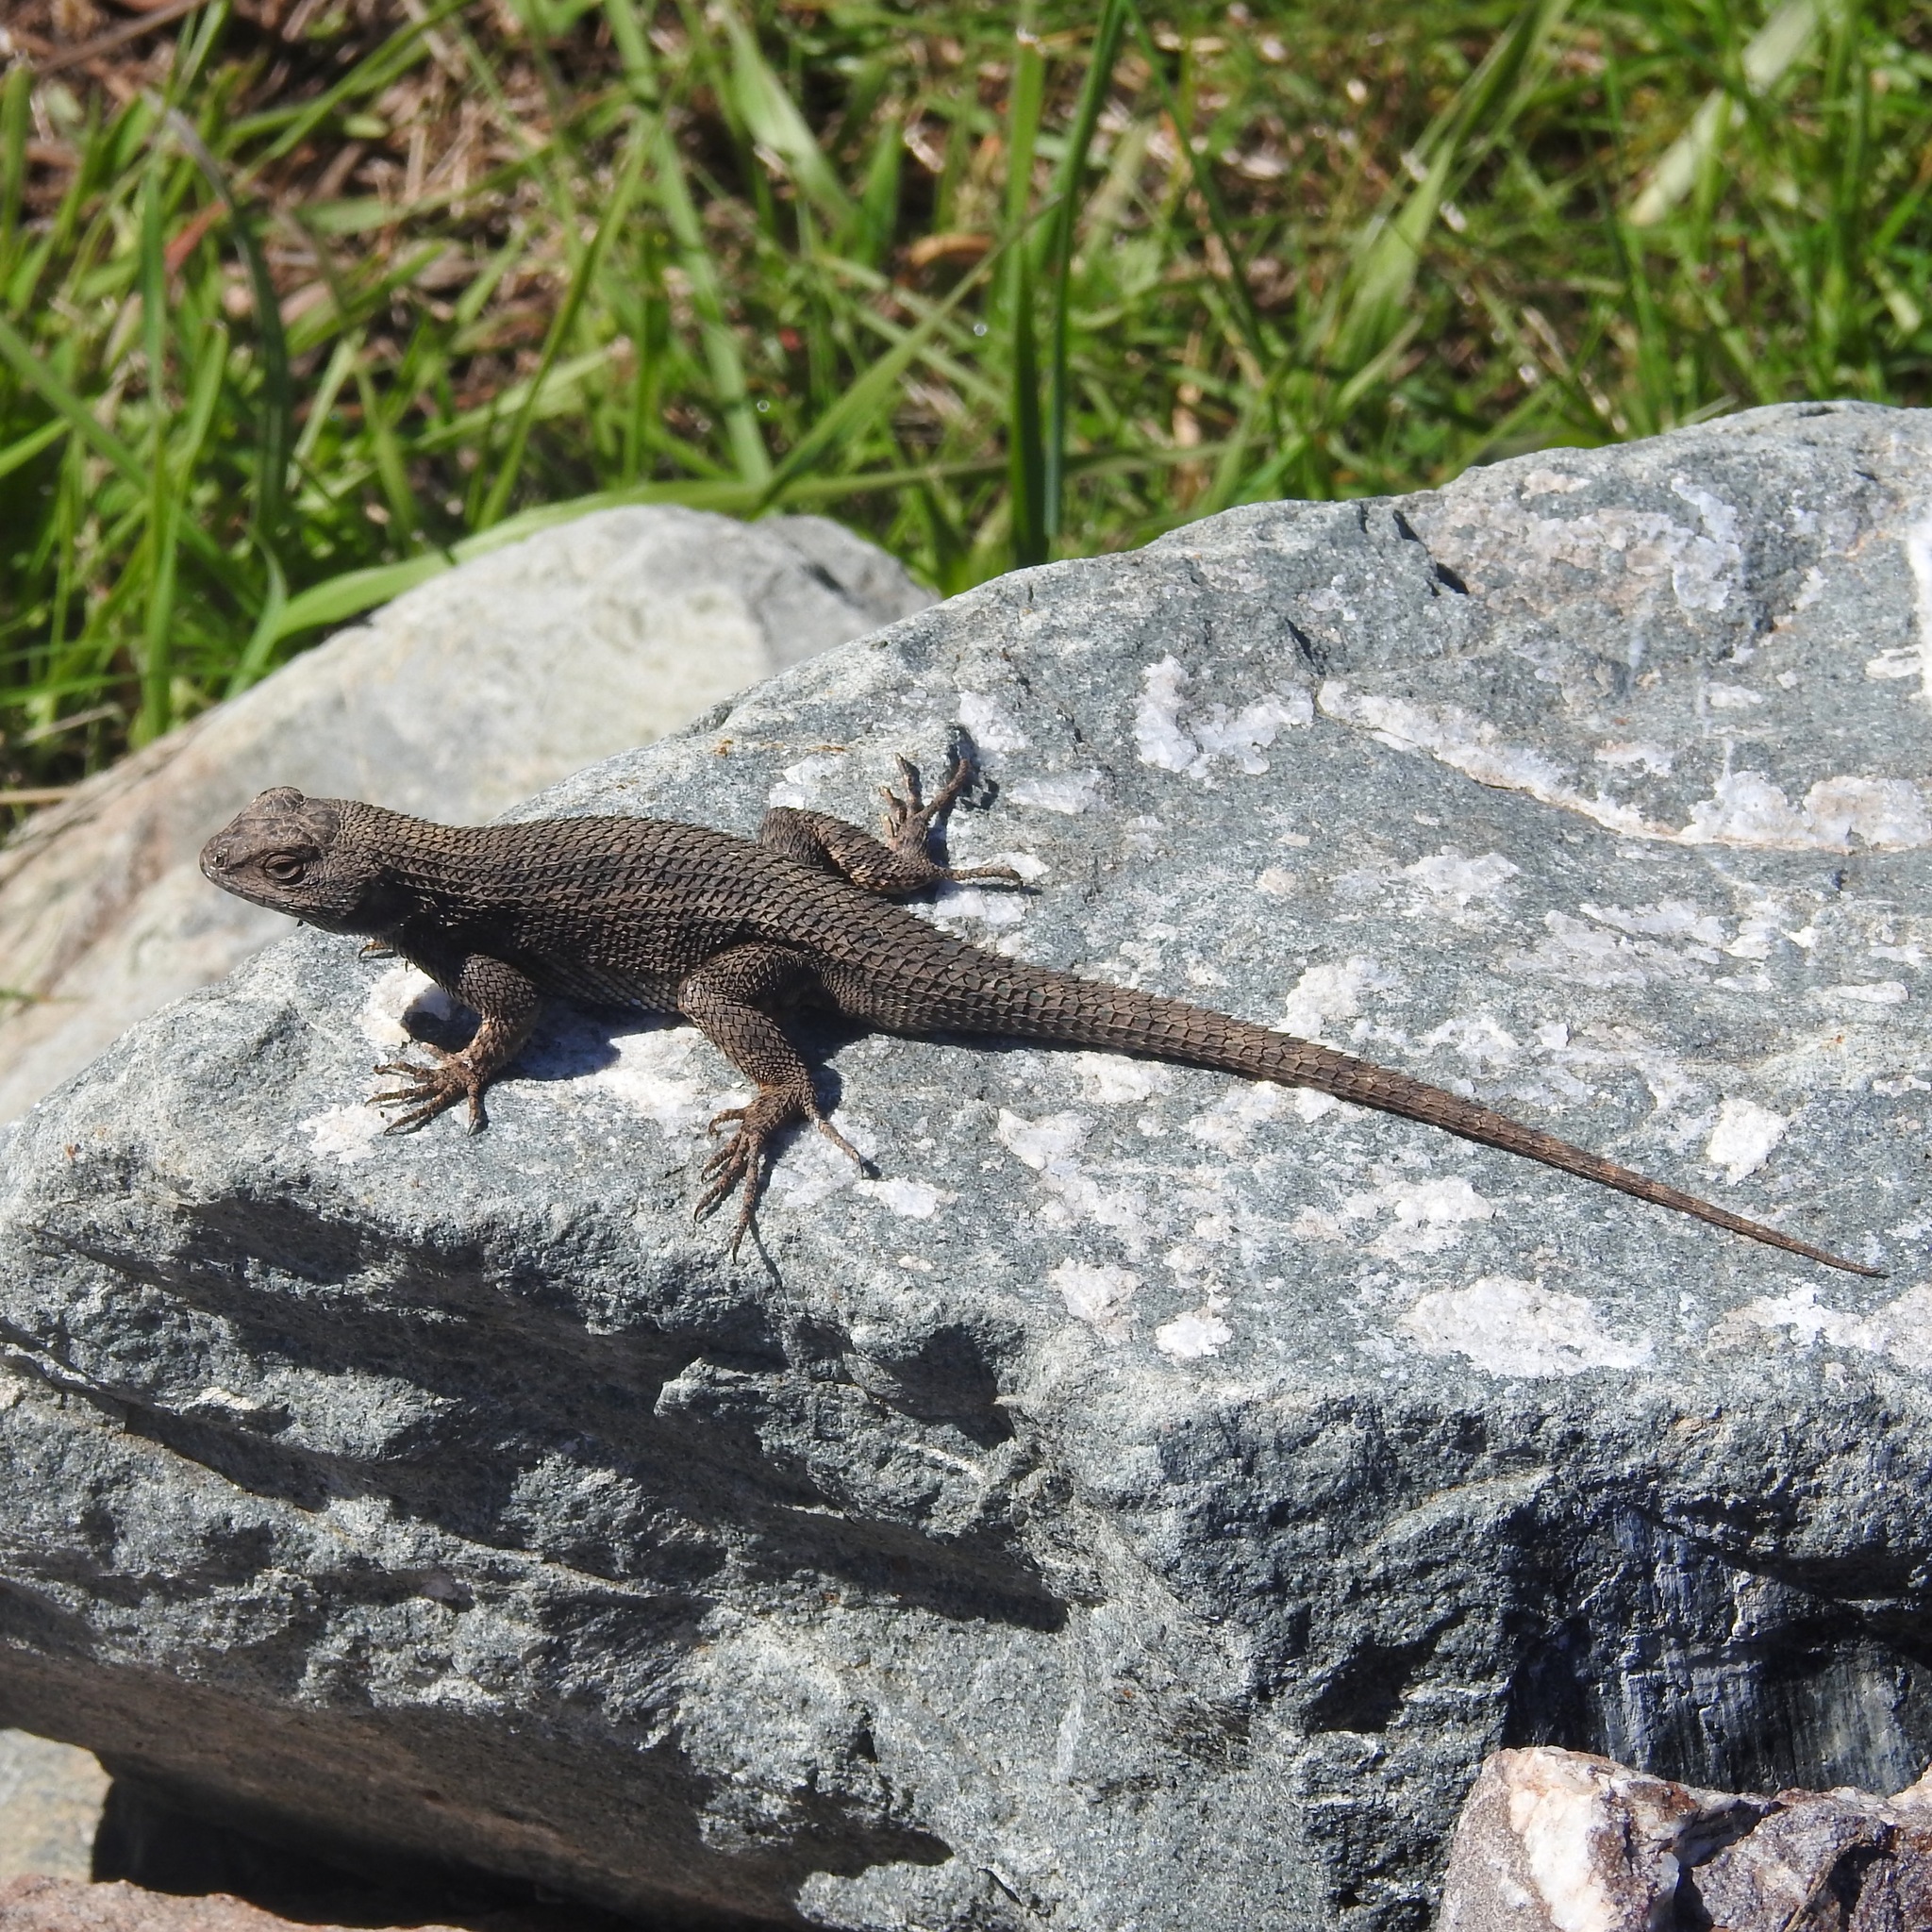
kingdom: Animalia
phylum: Chordata
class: Squamata
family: Phrynosomatidae
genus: Sceloporus
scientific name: Sceloporus occidentalis
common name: Western fence lizard
